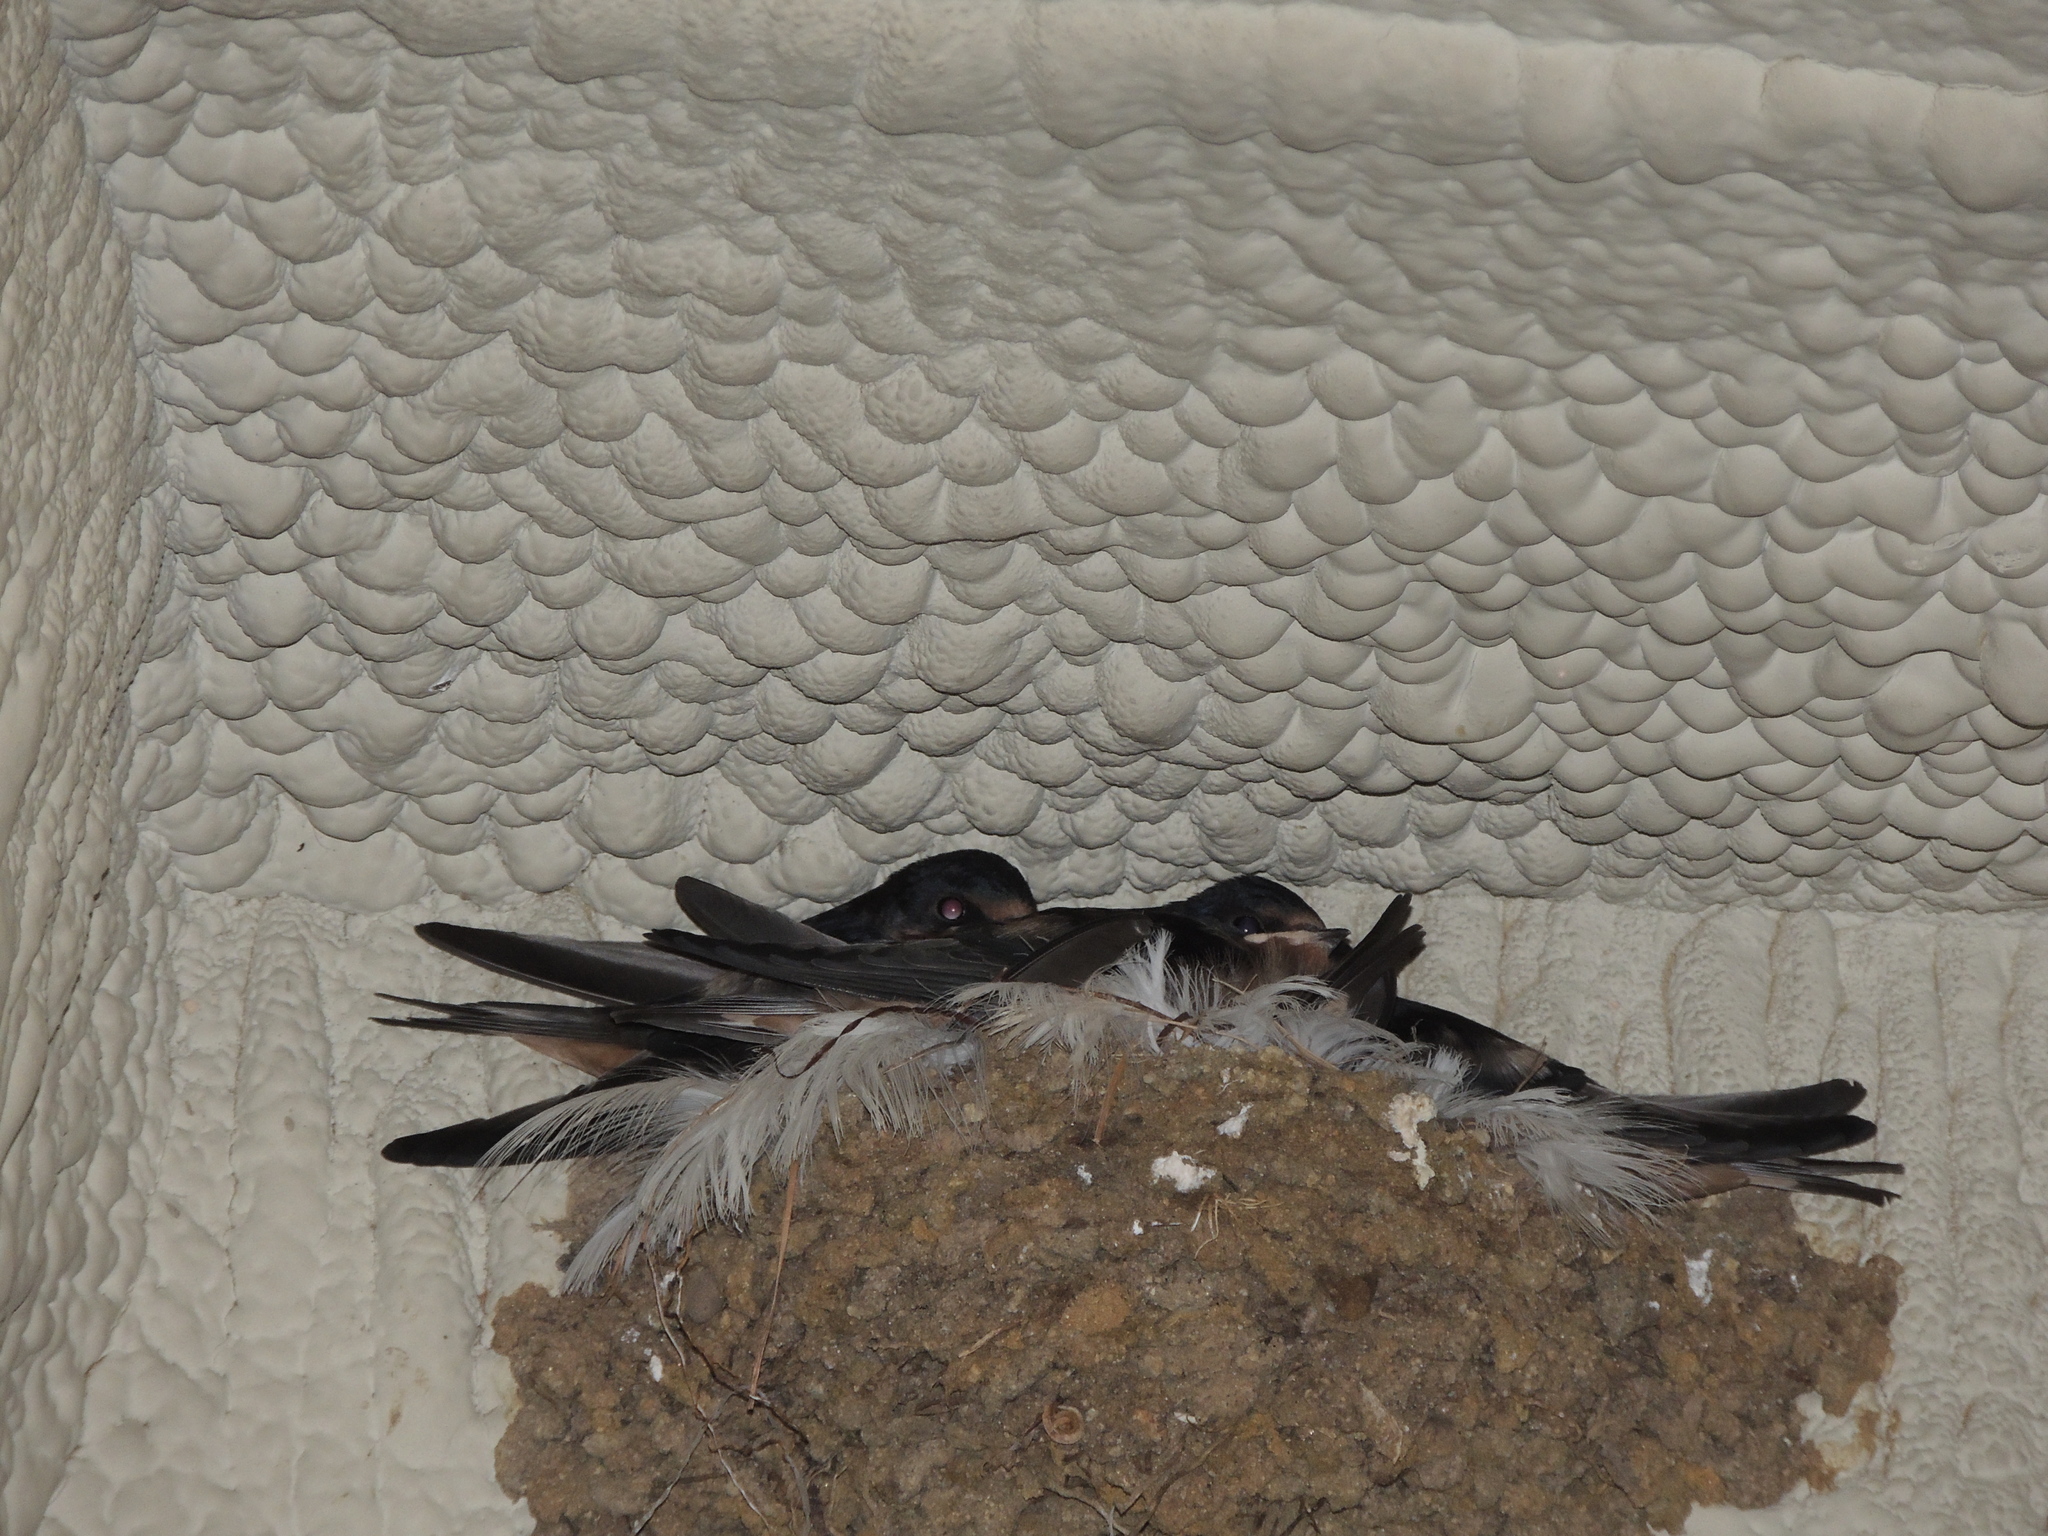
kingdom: Animalia
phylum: Chordata
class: Aves
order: Passeriformes
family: Hirundinidae
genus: Hirundo
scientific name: Hirundo rustica
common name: Barn swallow
